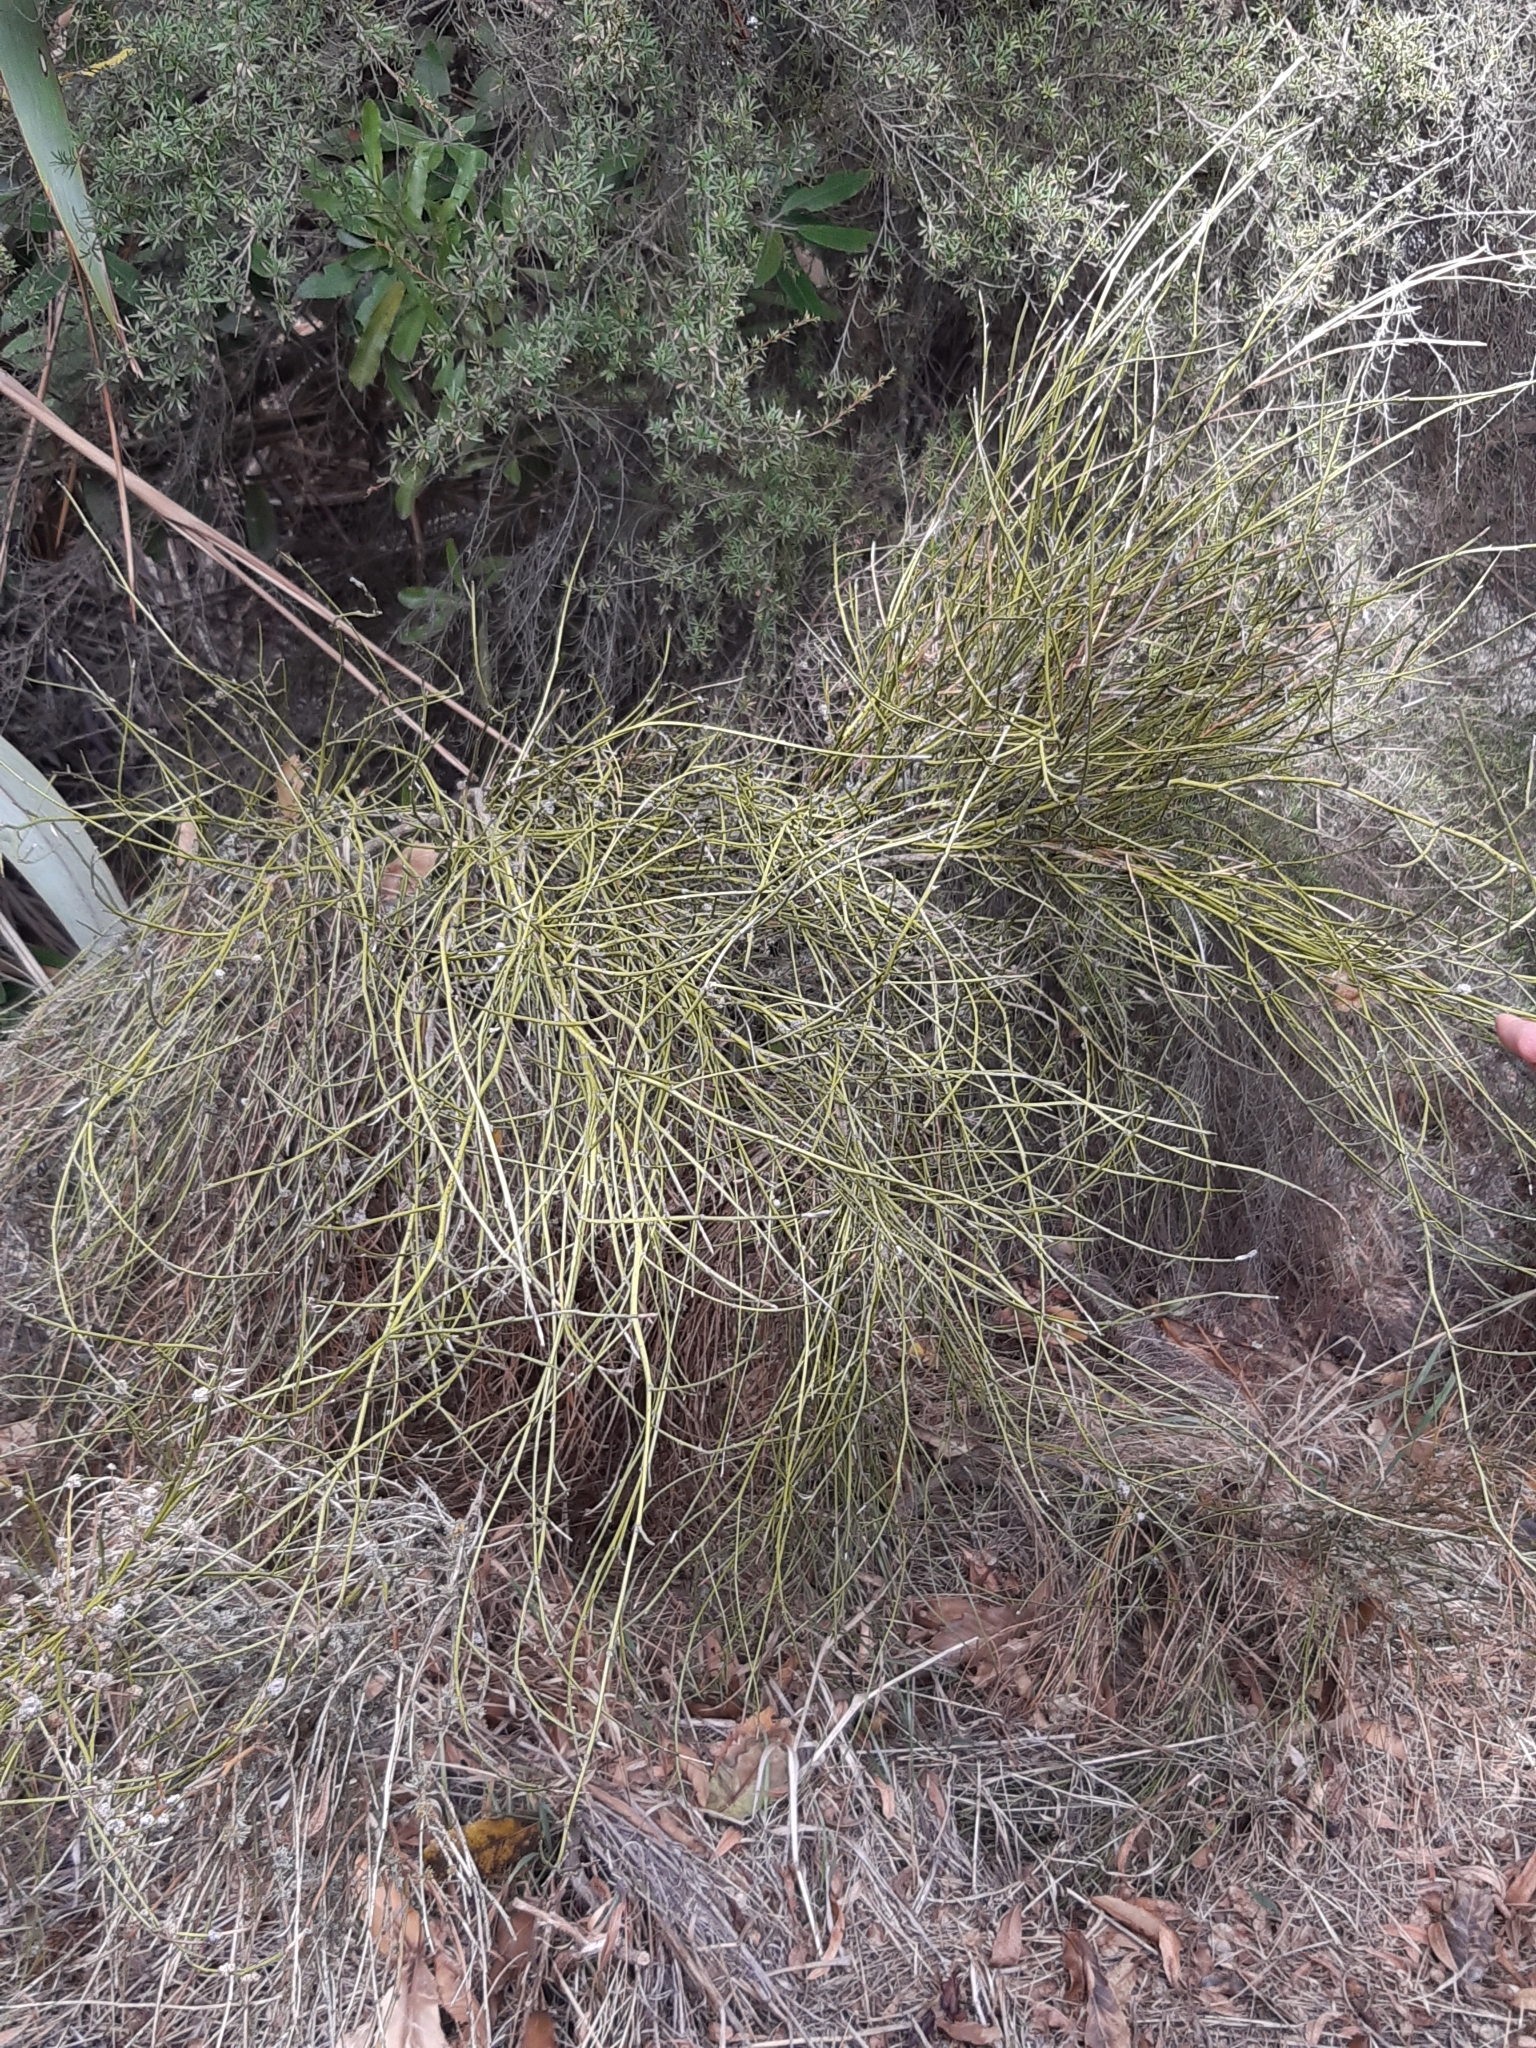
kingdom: Plantae
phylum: Tracheophyta
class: Magnoliopsida
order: Fabales
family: Fabaceae
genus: Carmichaelia
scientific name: Carmichaelia australis
